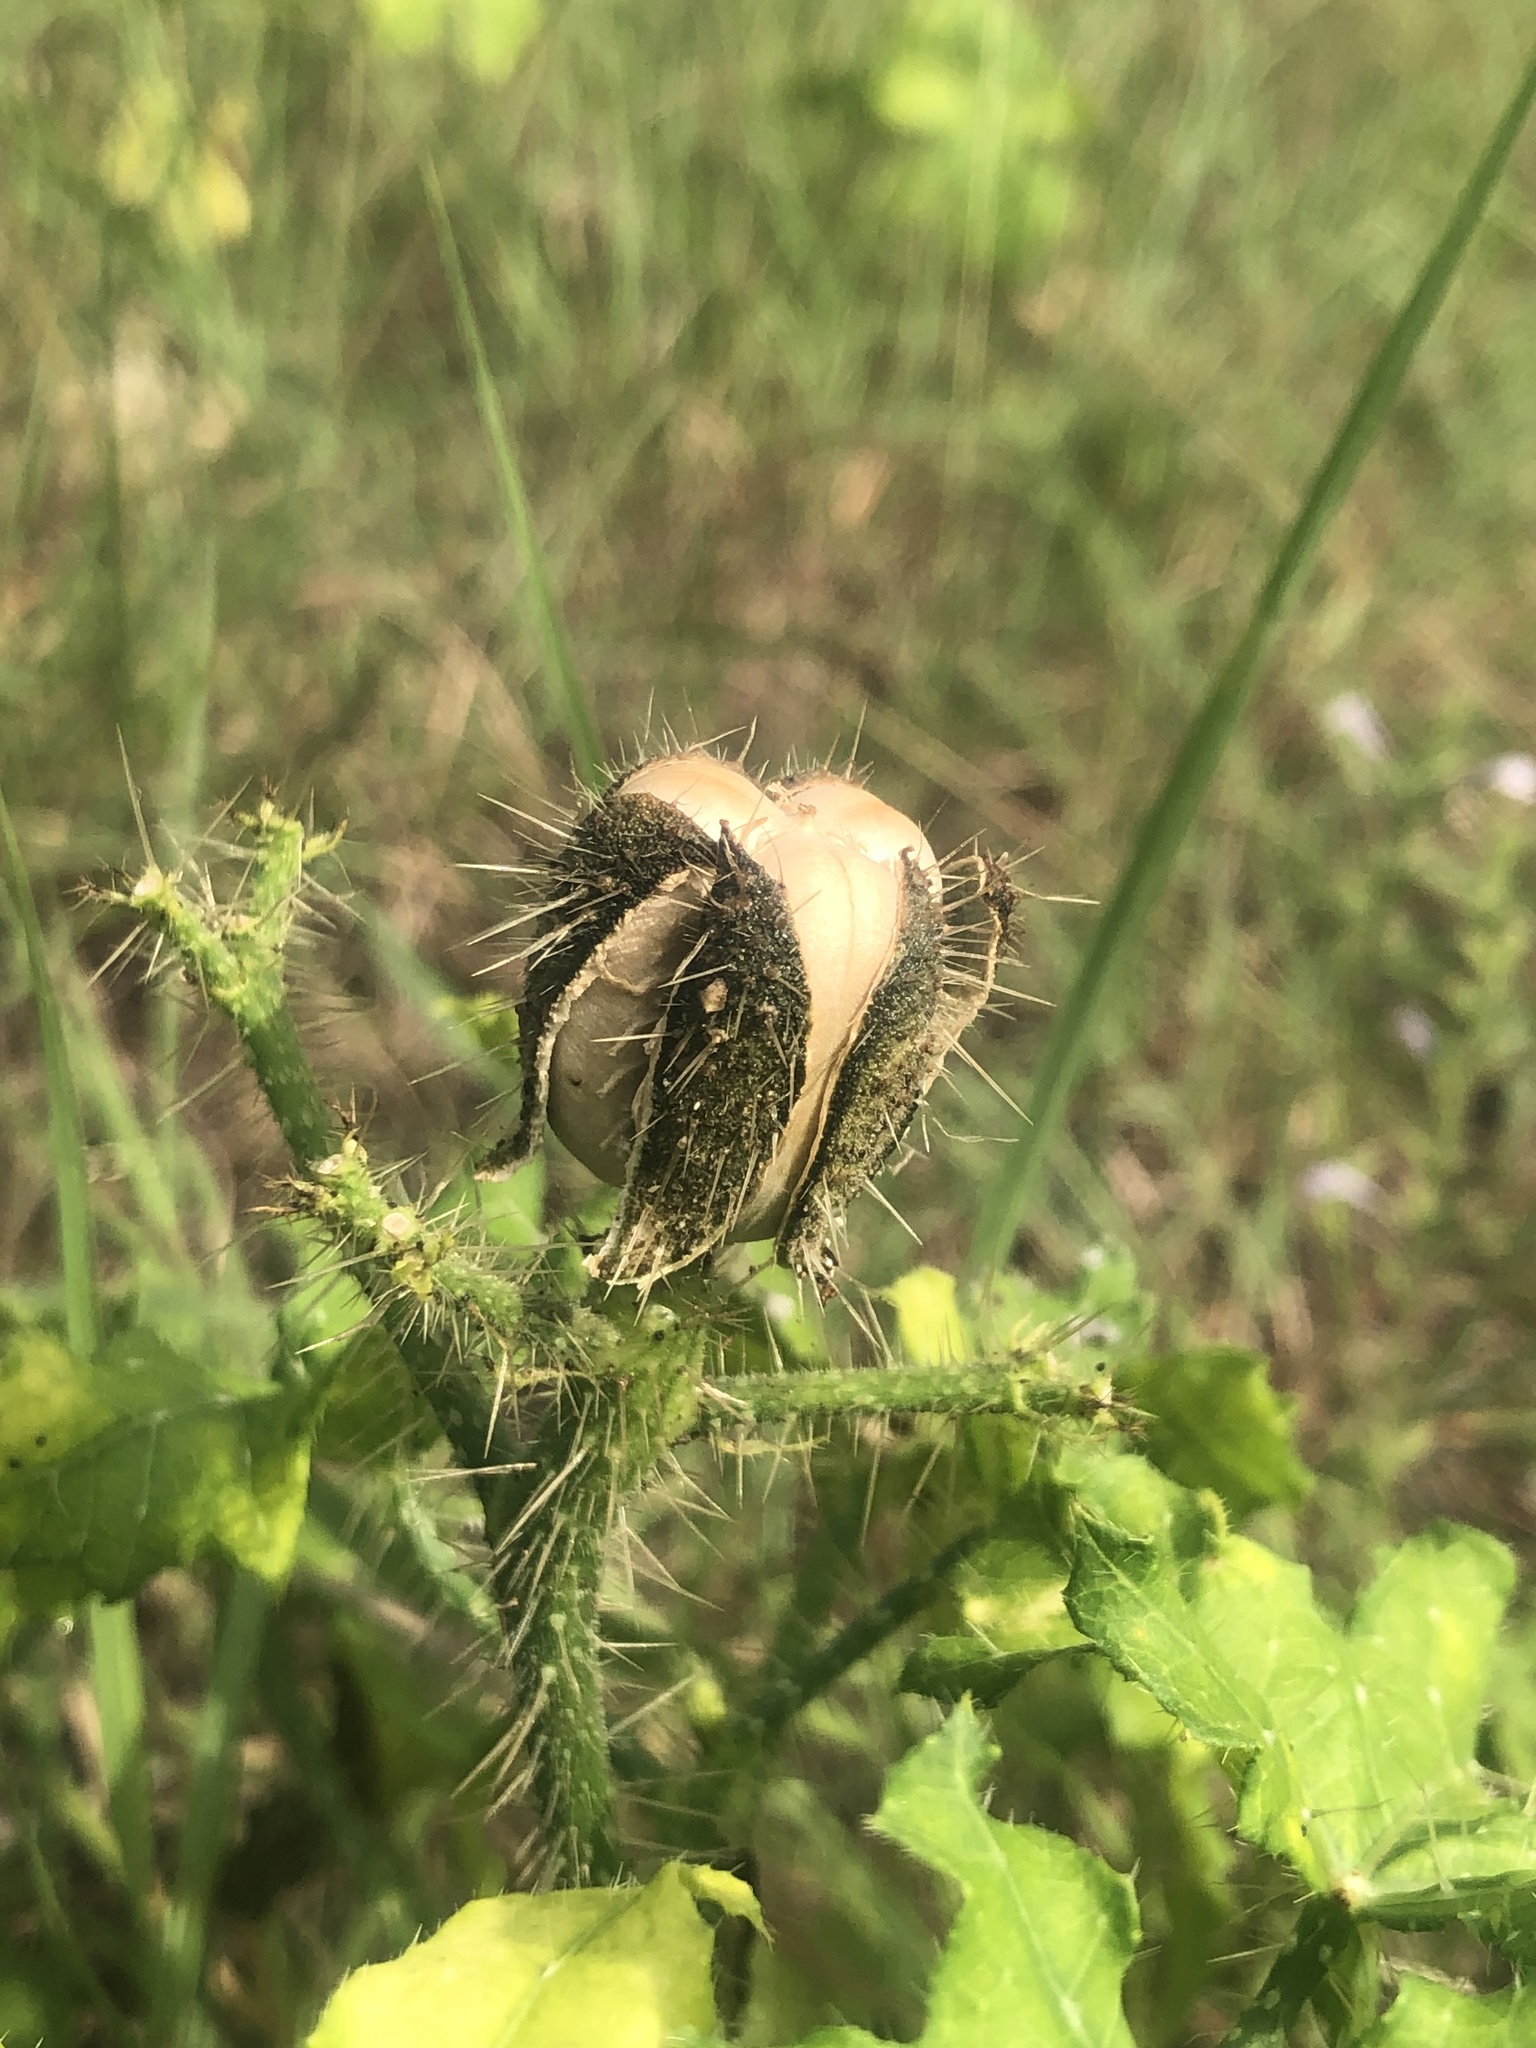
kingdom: Plantae
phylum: Tracheophyta
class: Magnoliopsida
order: Malpighiales
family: Euphorbiaceae
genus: Cnidoscolus
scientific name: Cnidoscolus texanus
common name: Texas bull-nettle
